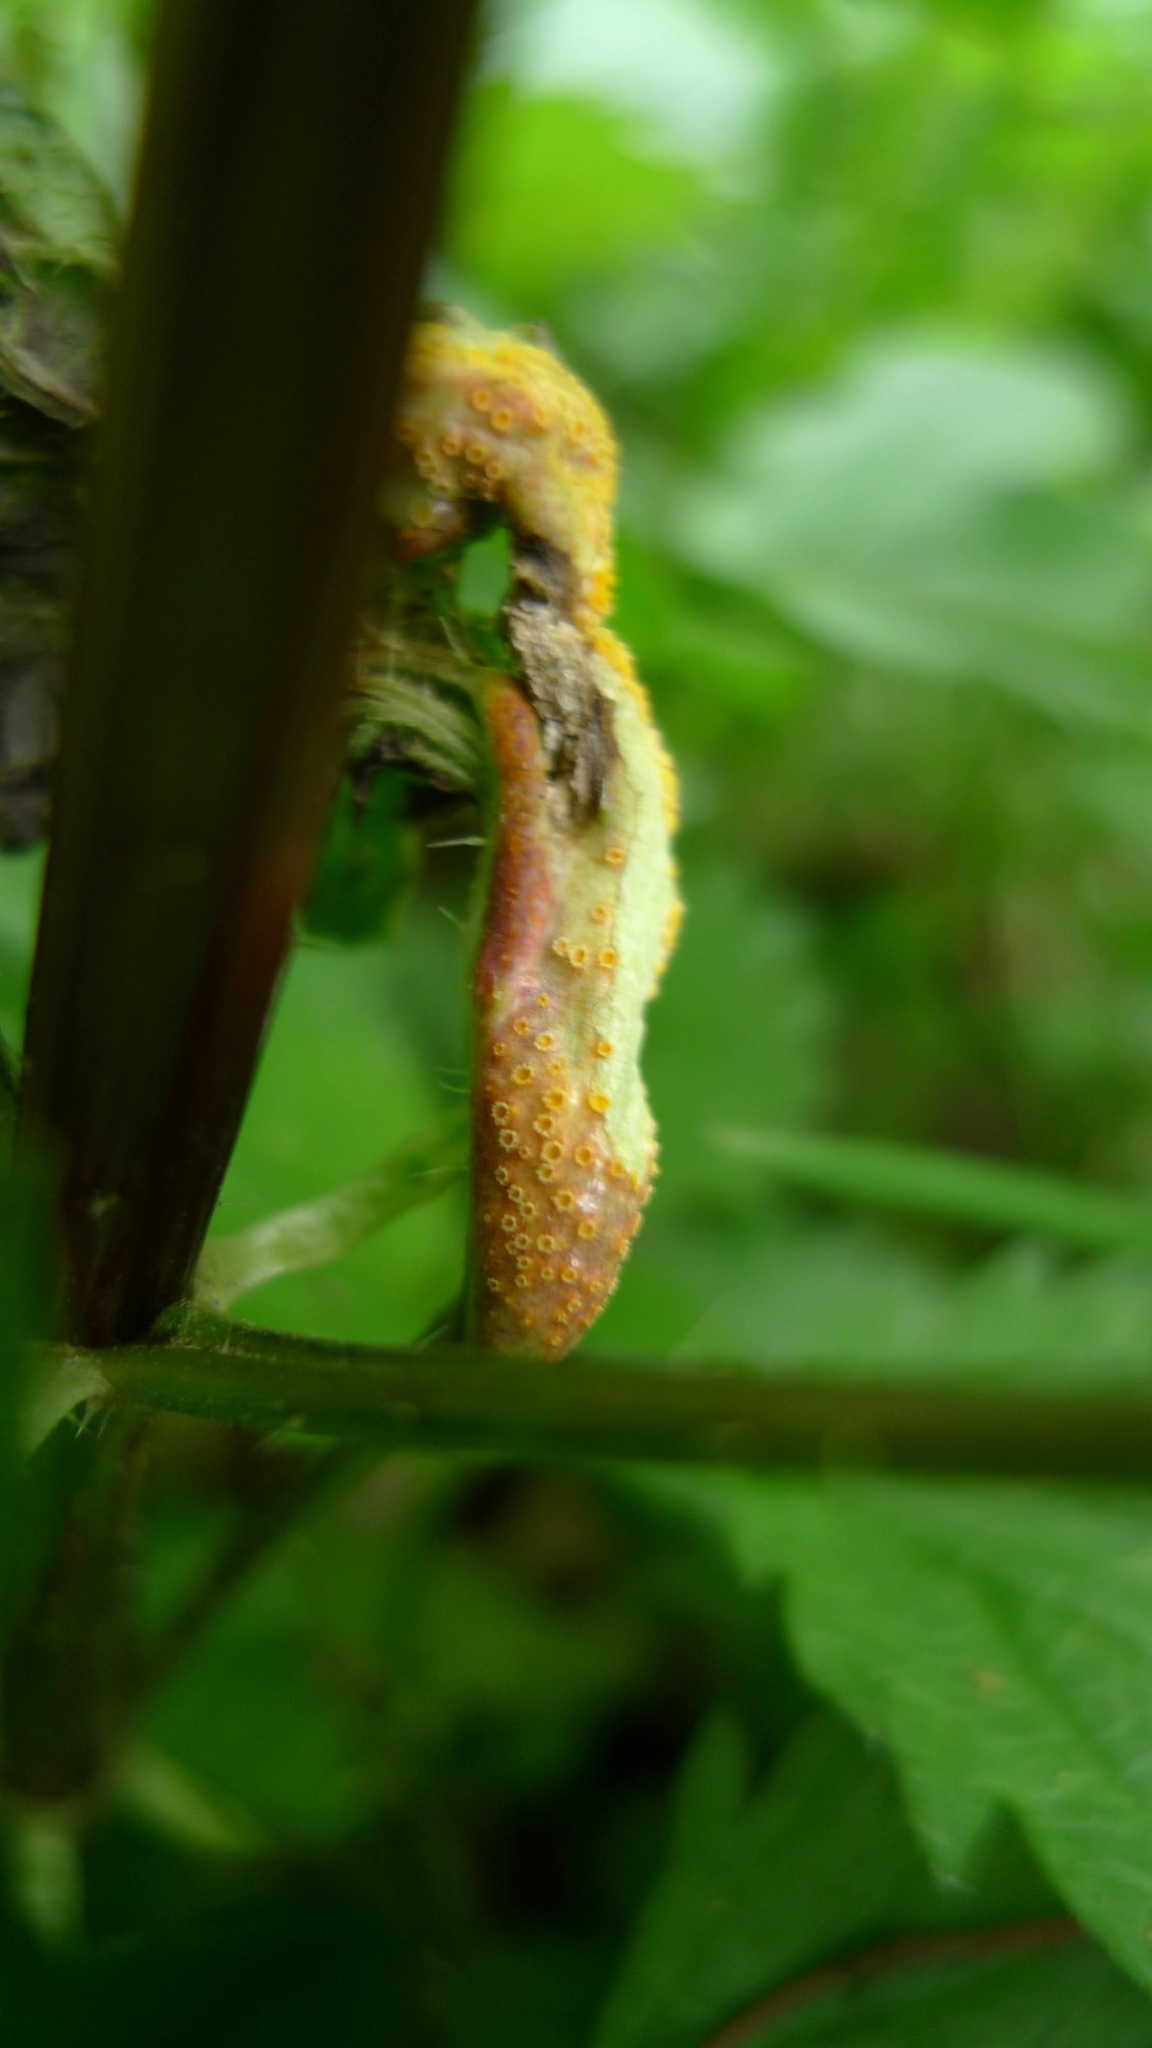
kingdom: Fungi
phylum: Basidiomycota
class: Pucciniomycetes
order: Pucciniales
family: Pucciniaceae
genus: Puccinia
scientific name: Puccinia urticata
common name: Nettle clustercup rust fungus
